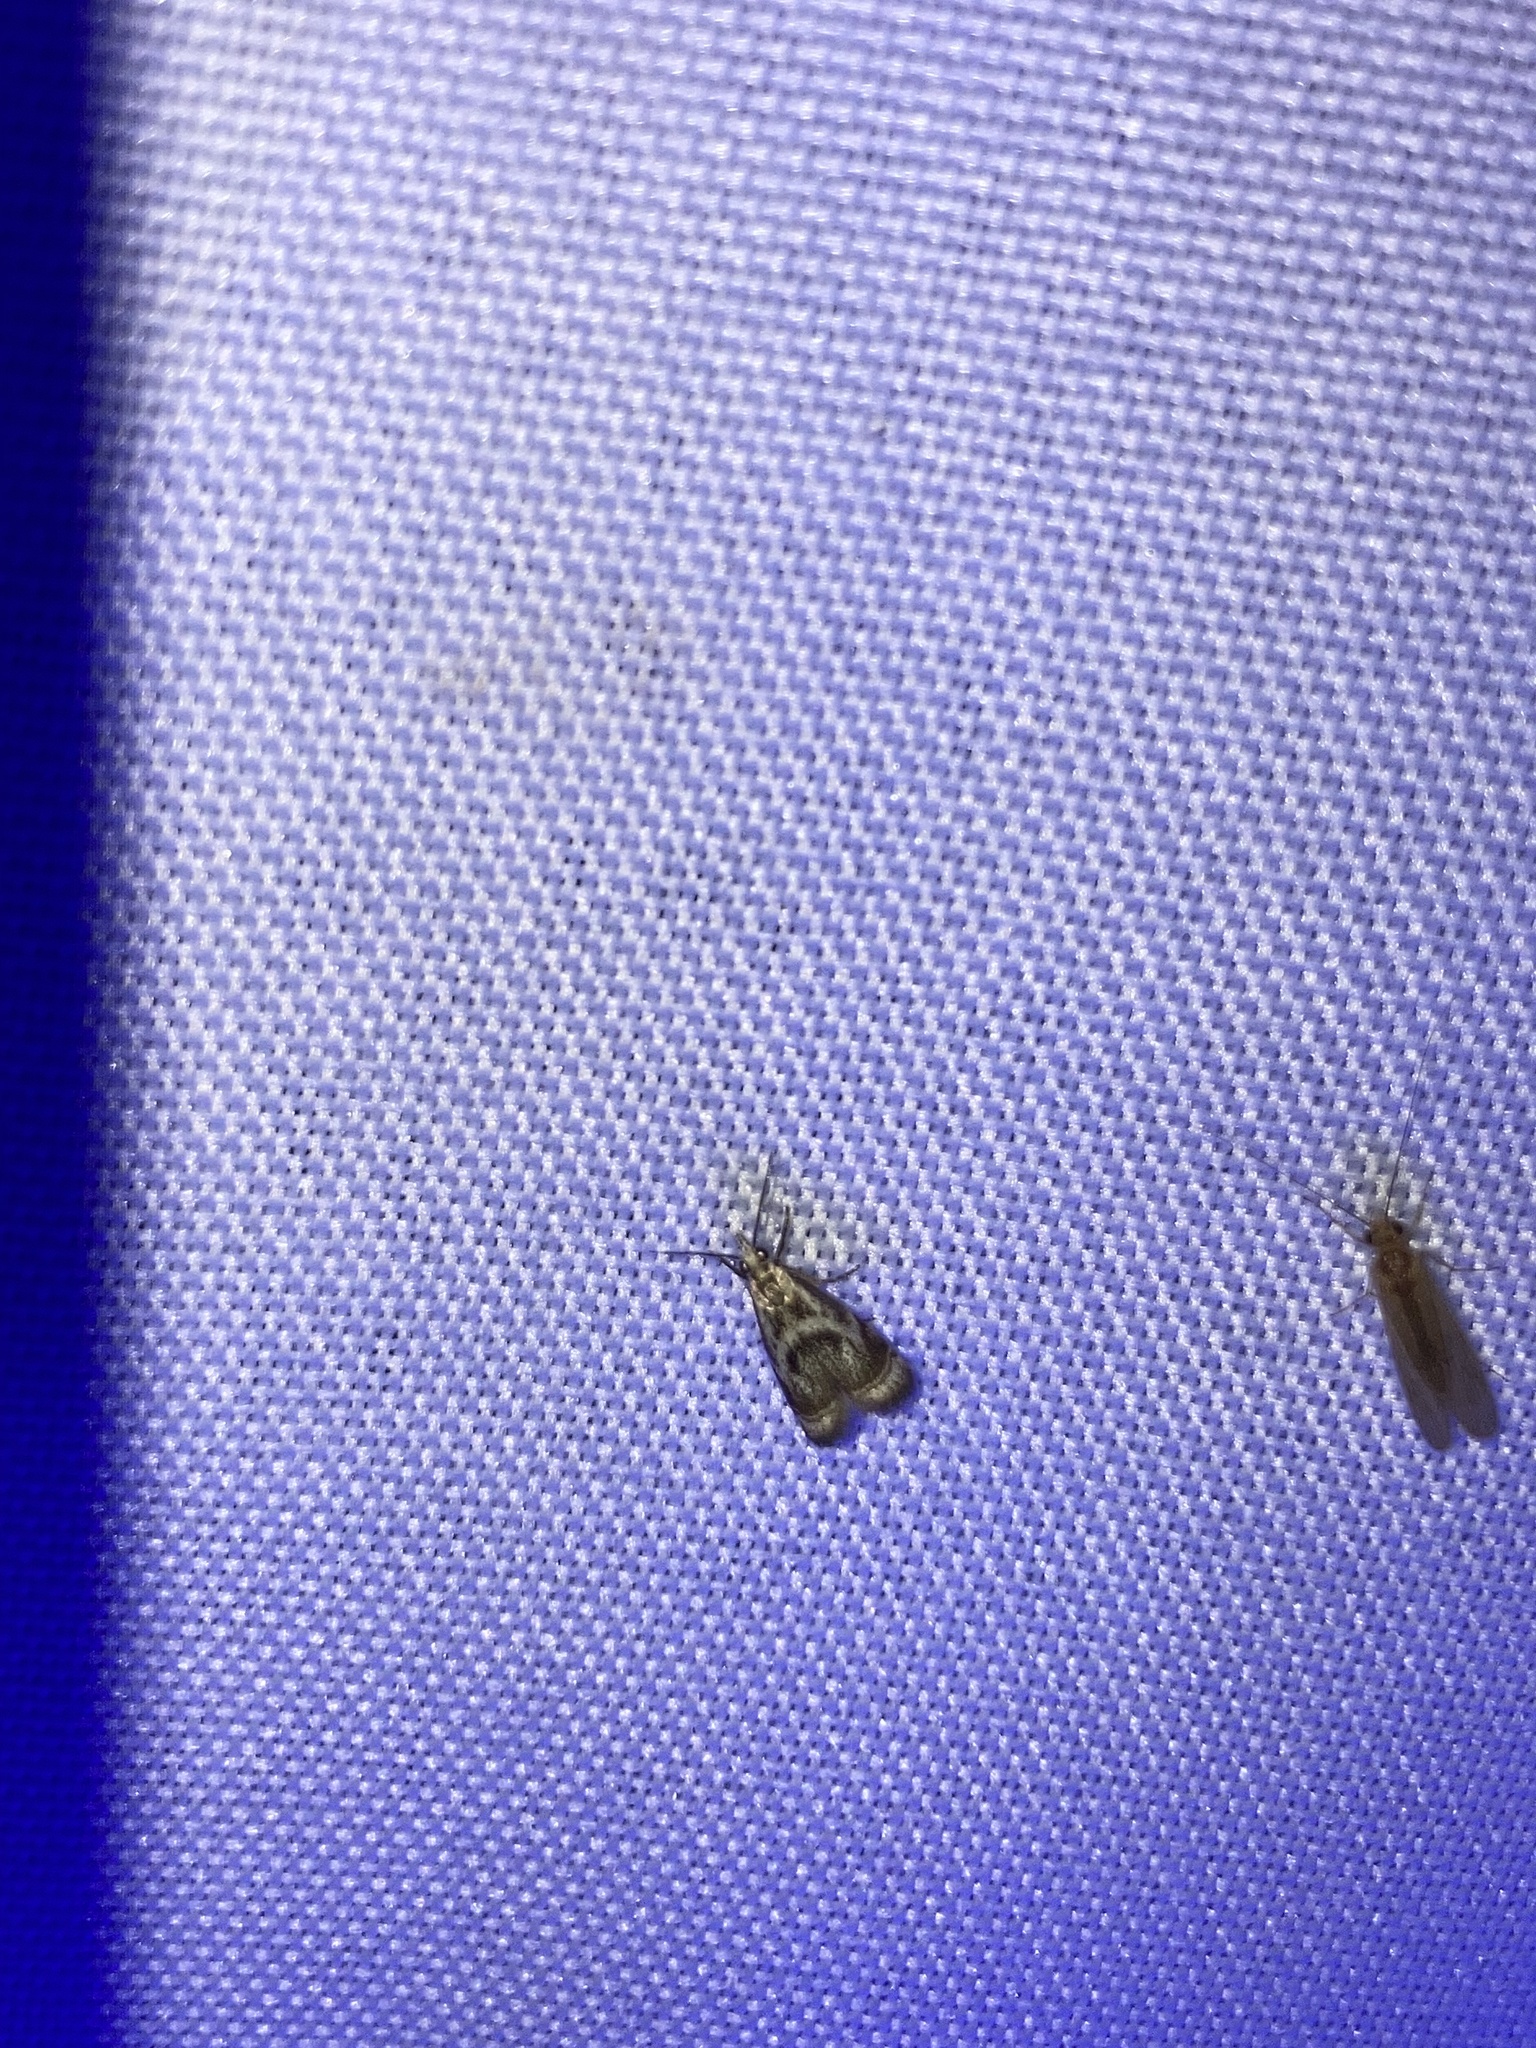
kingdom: Animalia
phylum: Arthropoda
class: Insecta
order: Lepidoptera
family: Crambidae
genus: Microcrambus
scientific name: Microcrambus elegans
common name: Elegant grass-veneer
